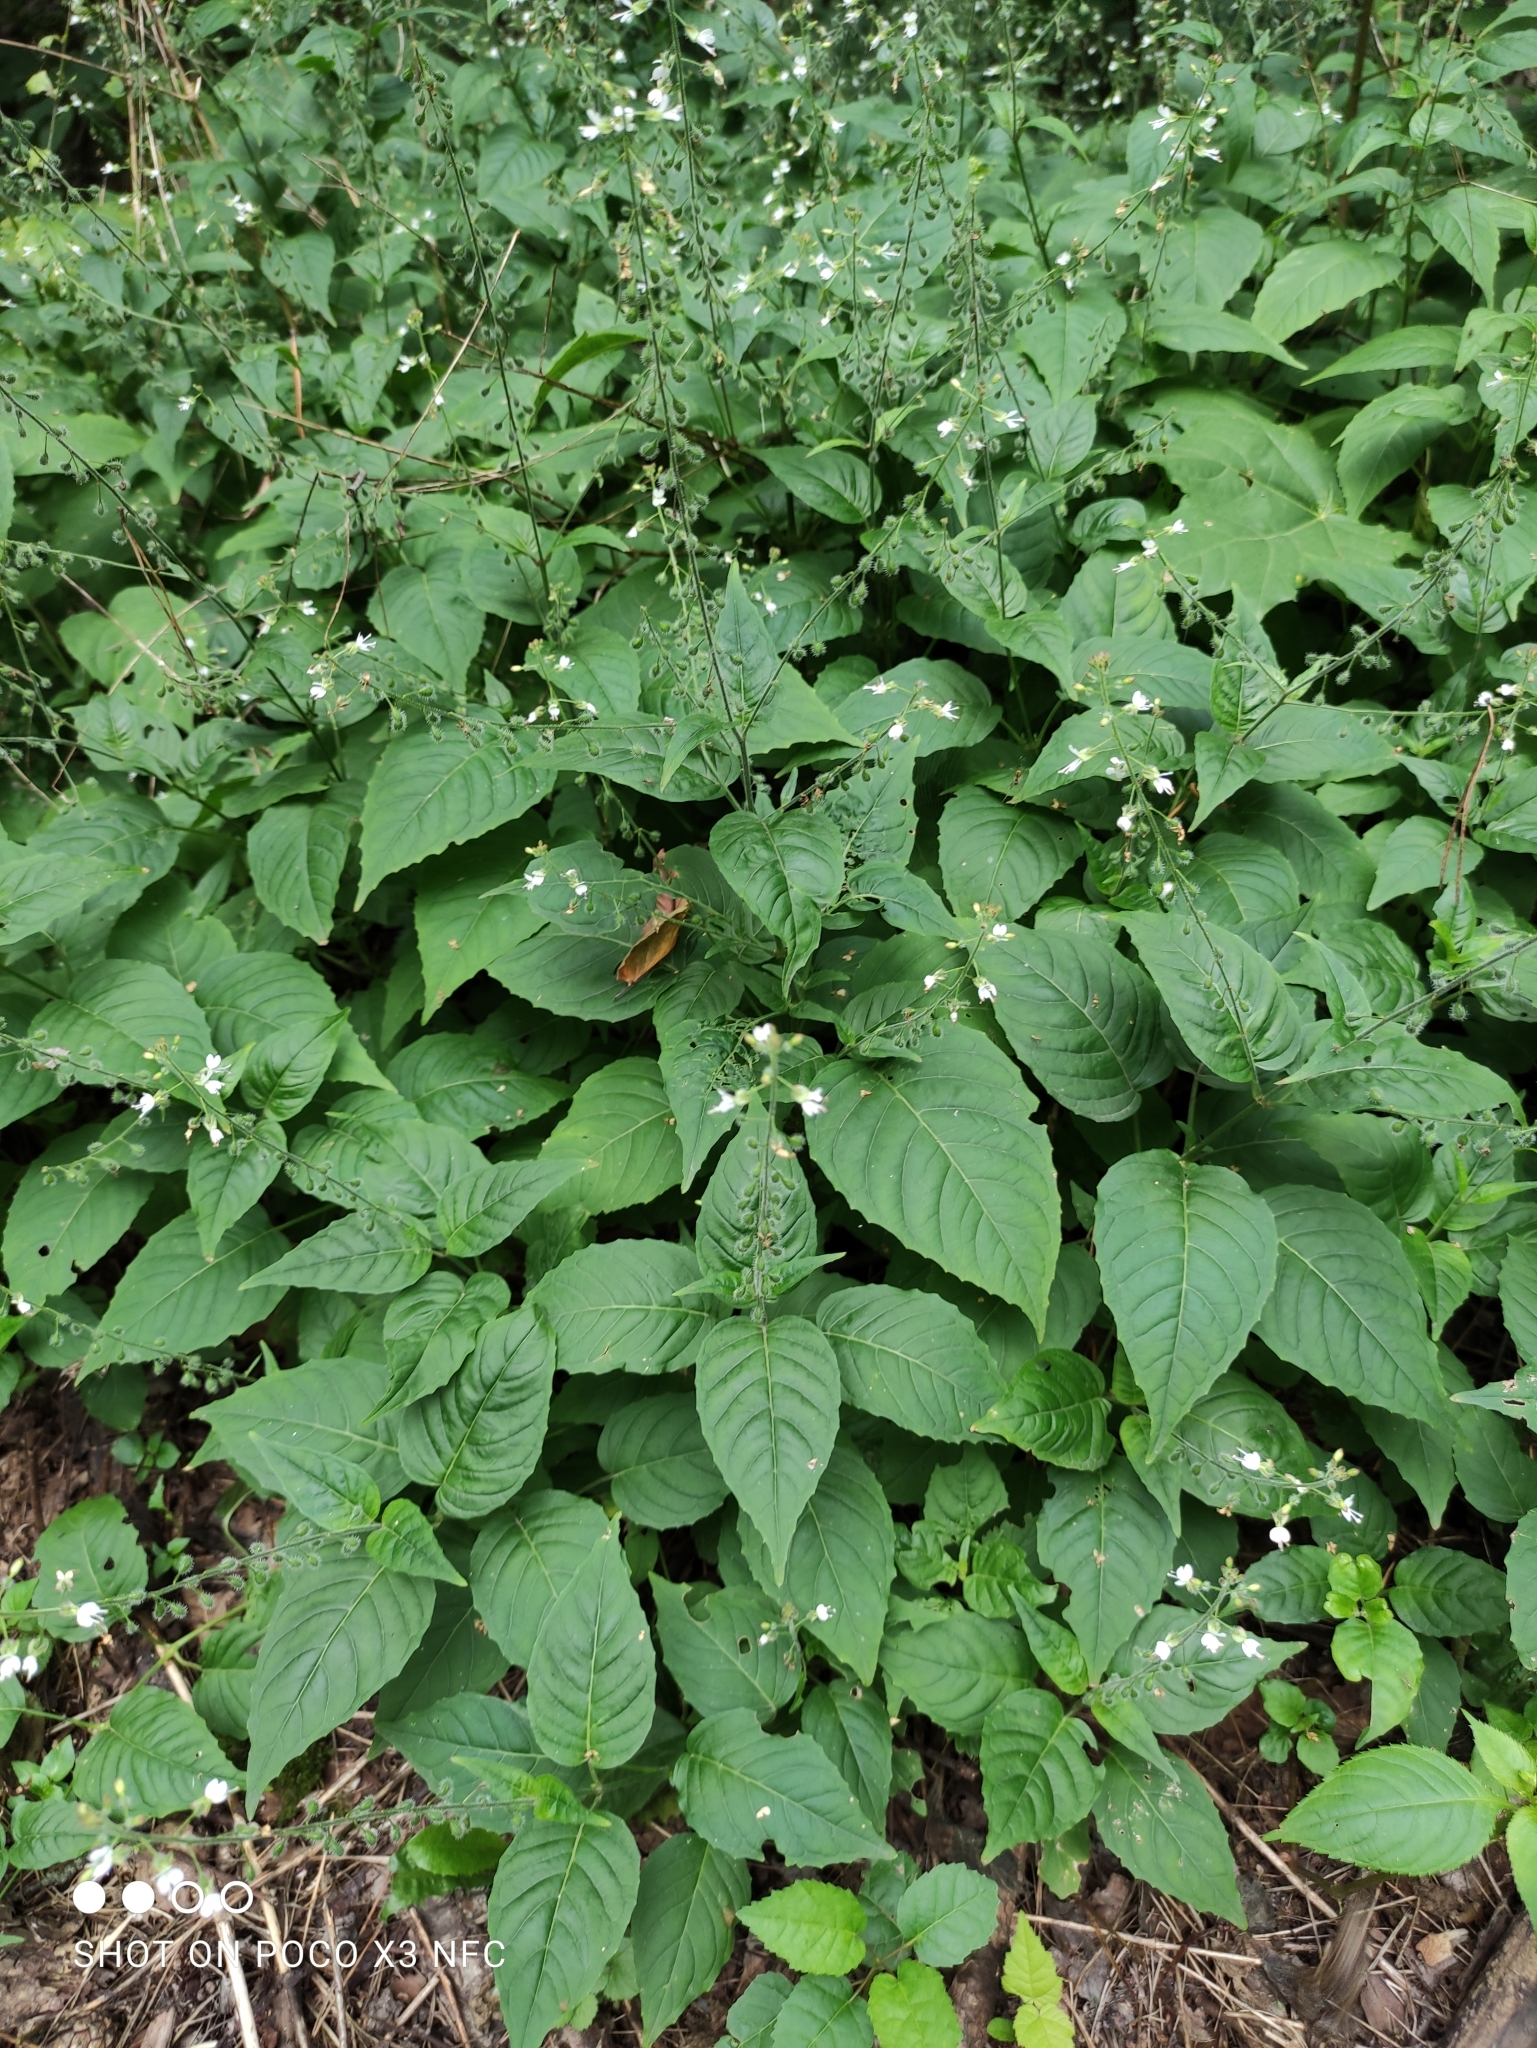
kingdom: Plantae
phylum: Tracheophyta
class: Magnoliopsida
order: Myrtales
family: Onagraceae
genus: Circaea
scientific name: Circaea lutetiana
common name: Enchanter's-nightshade
